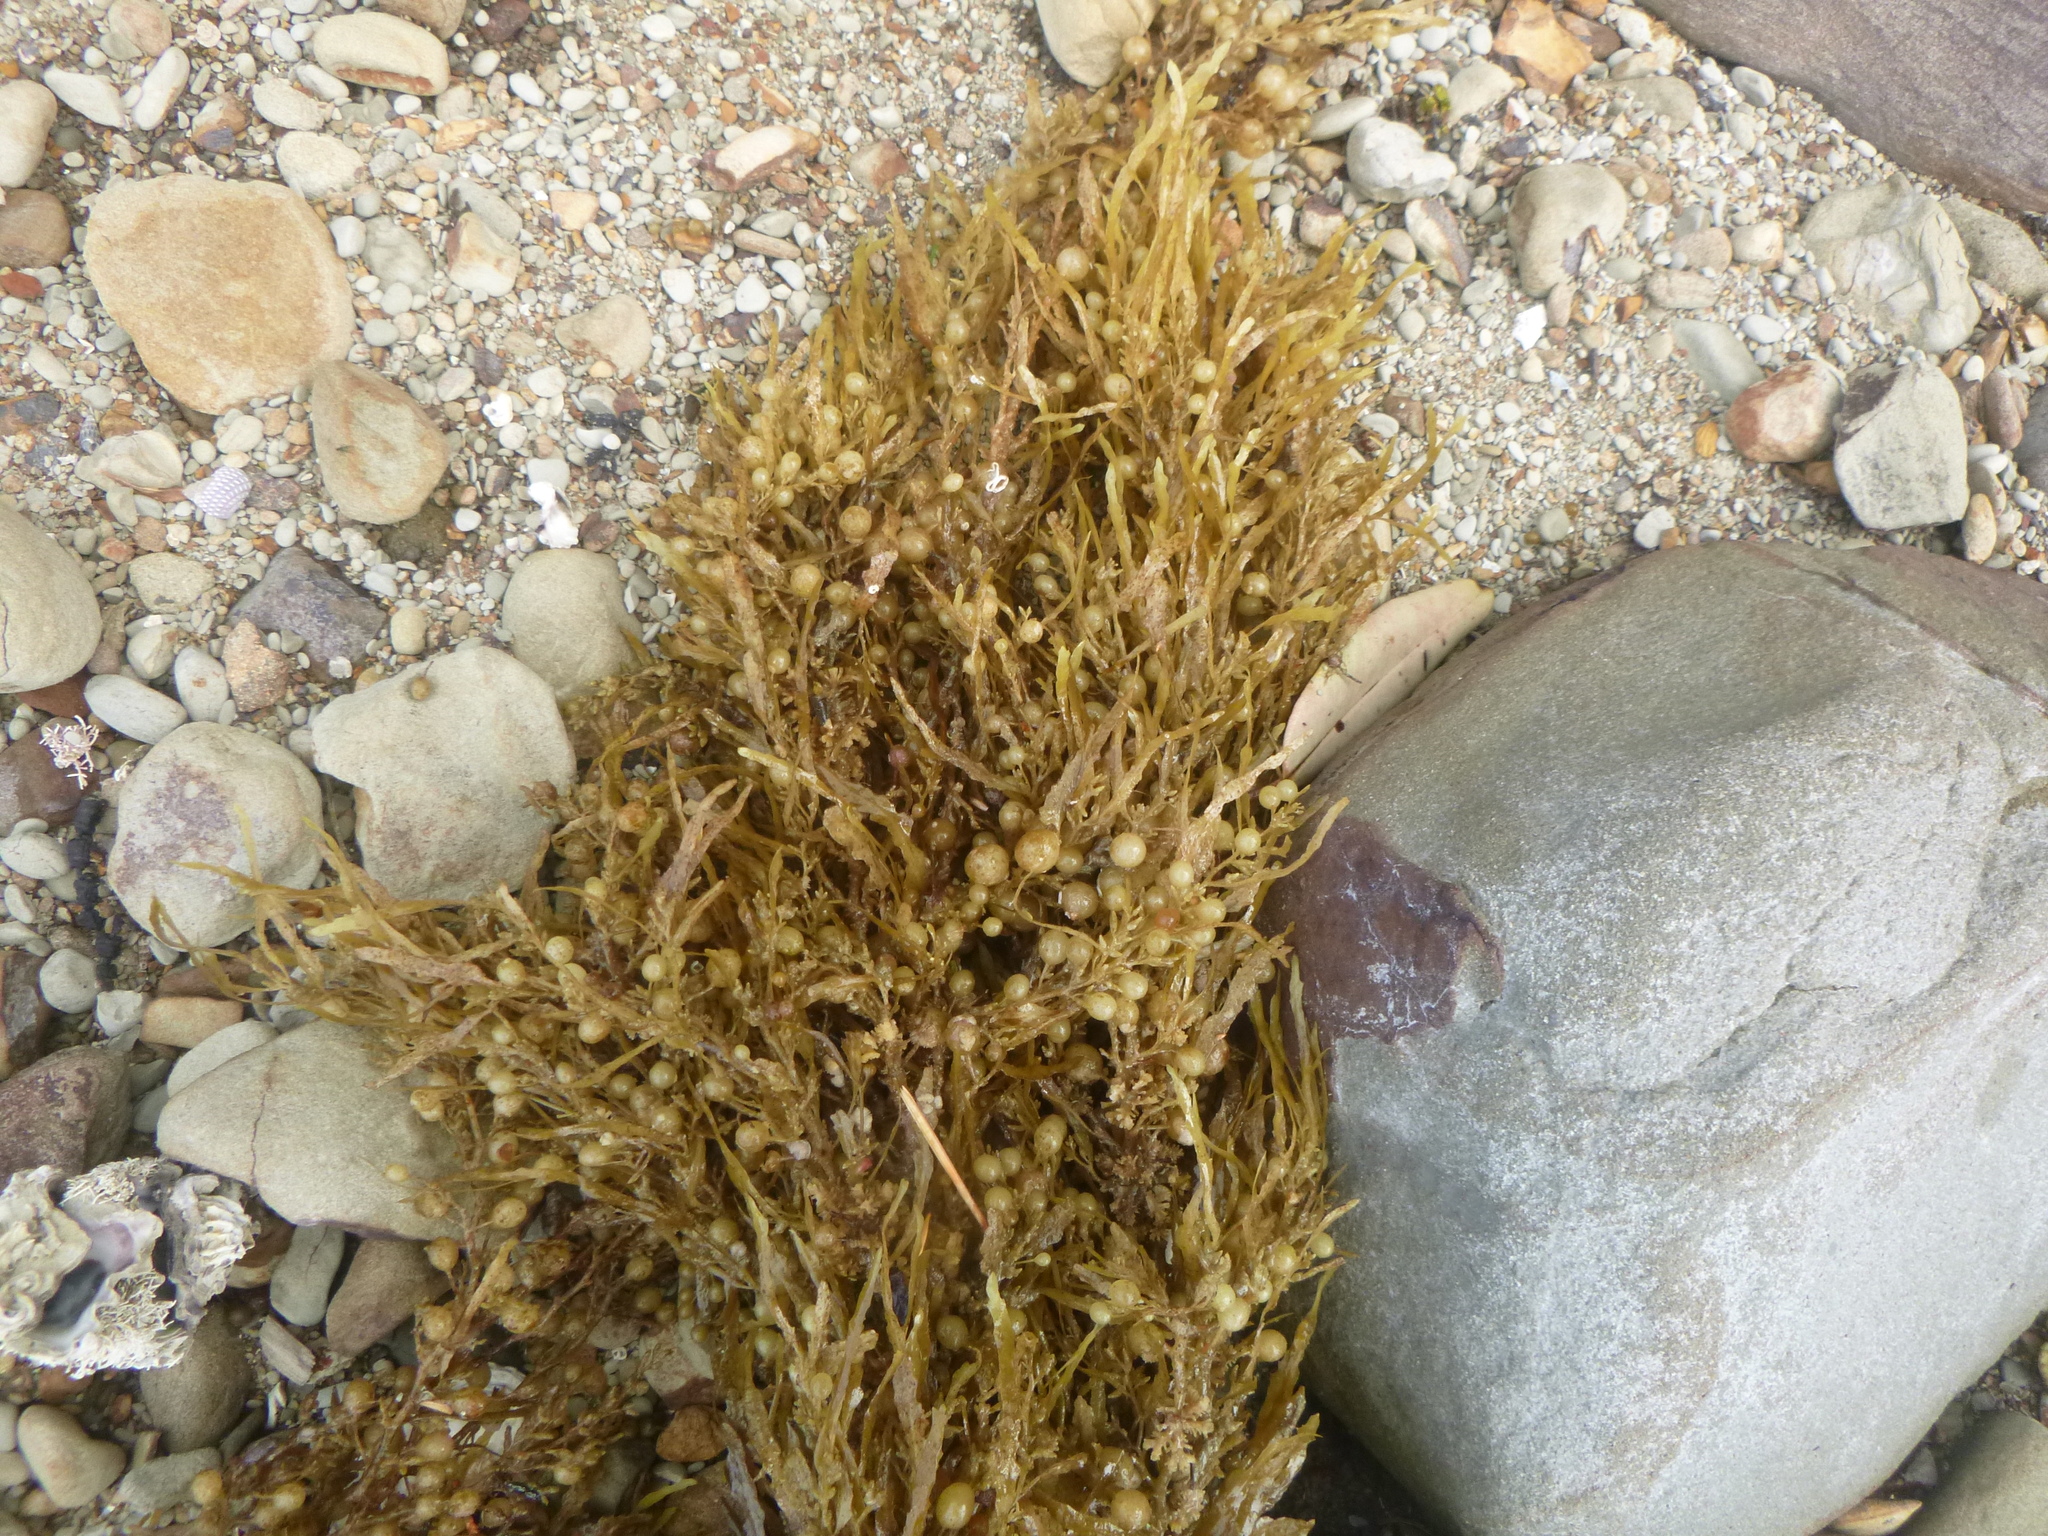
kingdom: Chromista
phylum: Ochrophyta
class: Phaeophyceae
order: Fucales
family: Sargassaceae
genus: Sargassum
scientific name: Sargassum sinclairii
